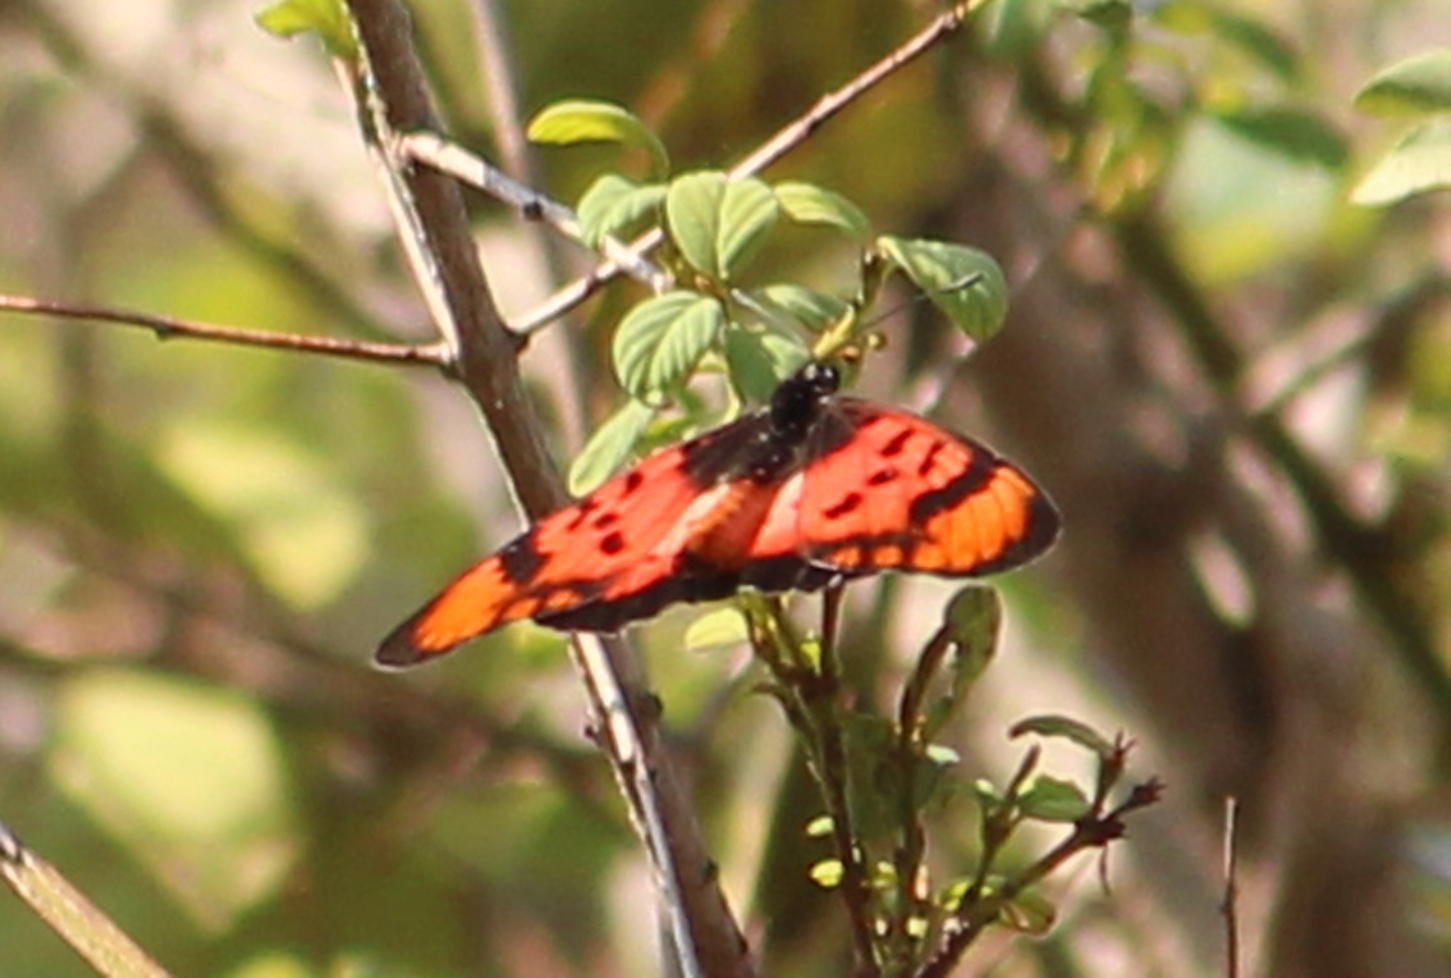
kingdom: Animalia
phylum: Arthropoda
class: Insecta
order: Lepidoptera
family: Nymphalidae
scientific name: Nymphalidae
